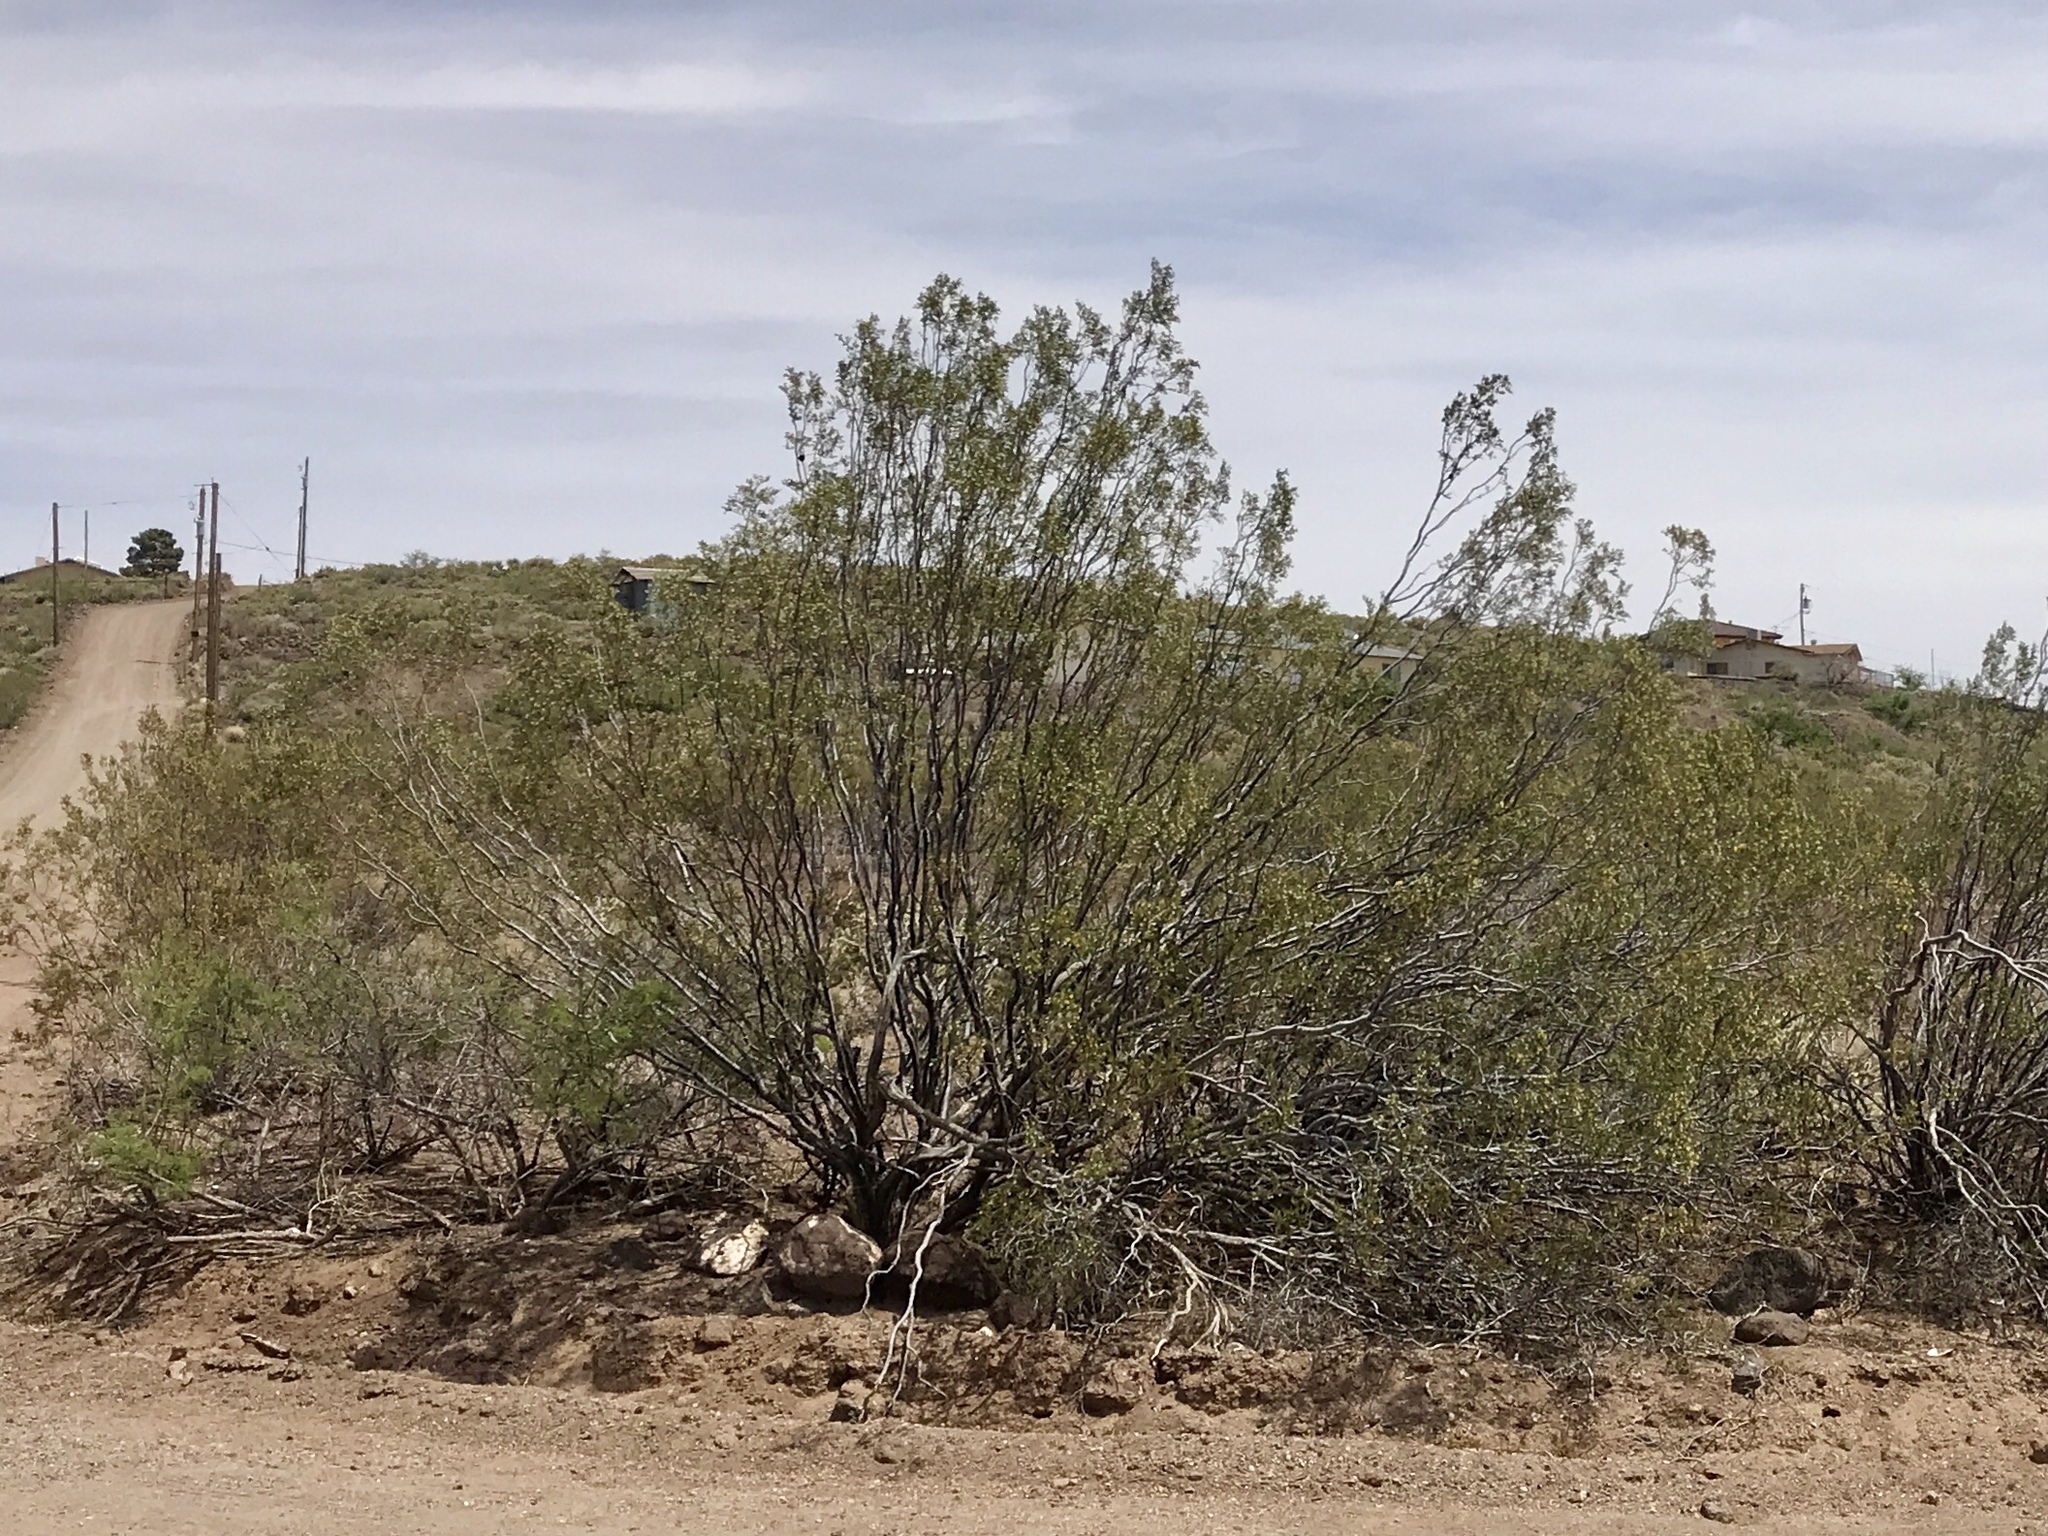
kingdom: Plantae
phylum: Tracheophyta
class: Magnoliopsida
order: Zygophyllales
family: Zygophyllaceae
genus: Larrea
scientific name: Larrea tridentata
